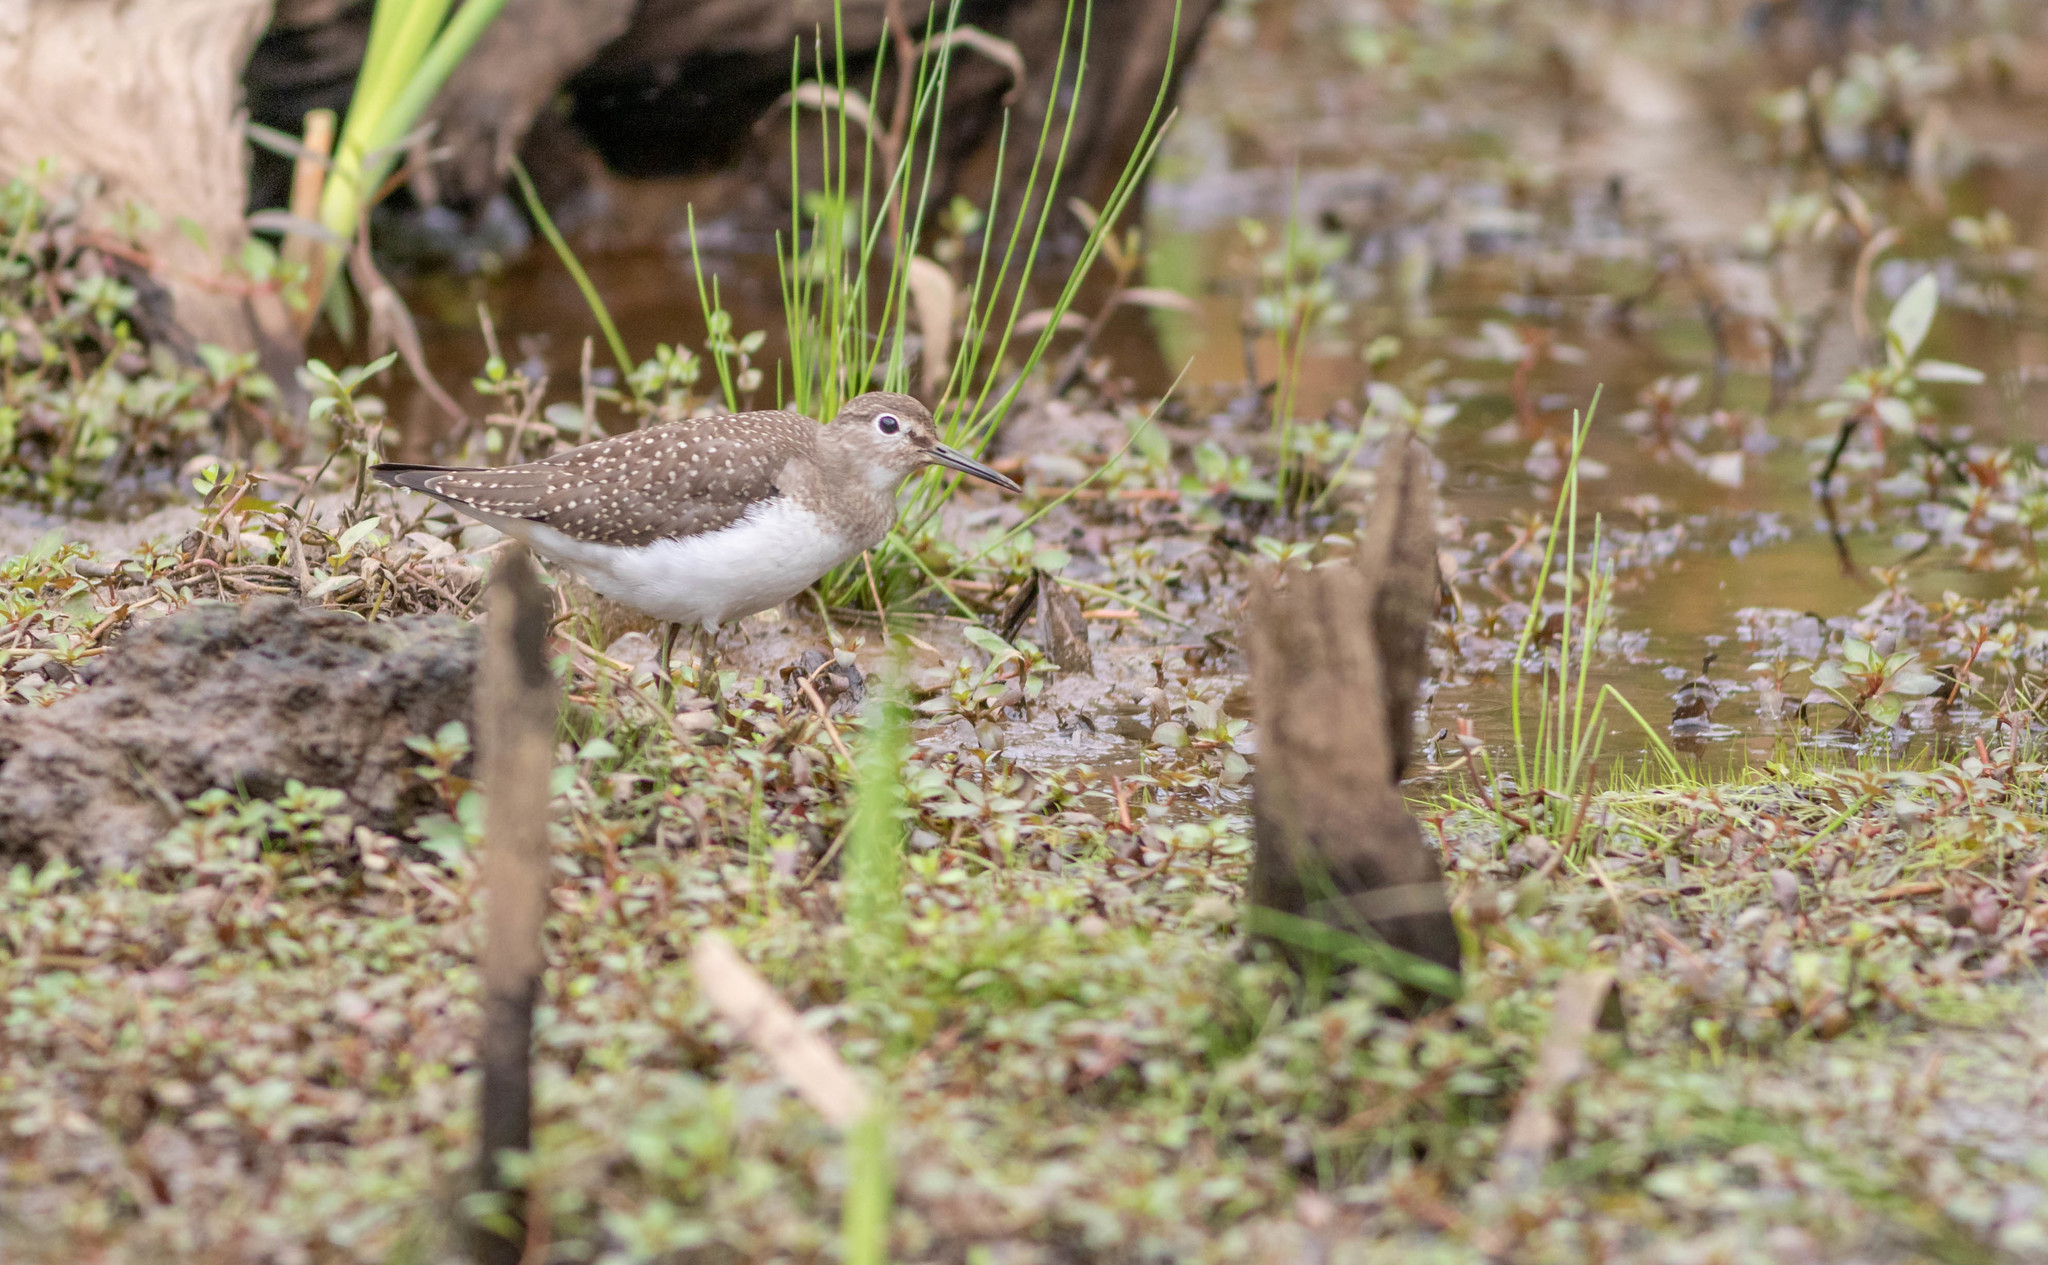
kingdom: Animalia
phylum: Chordata
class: Aves
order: Charadriiformes
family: Scolopacidae
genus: Tringa
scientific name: Tringa solitaria
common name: Solitary sandpiper
